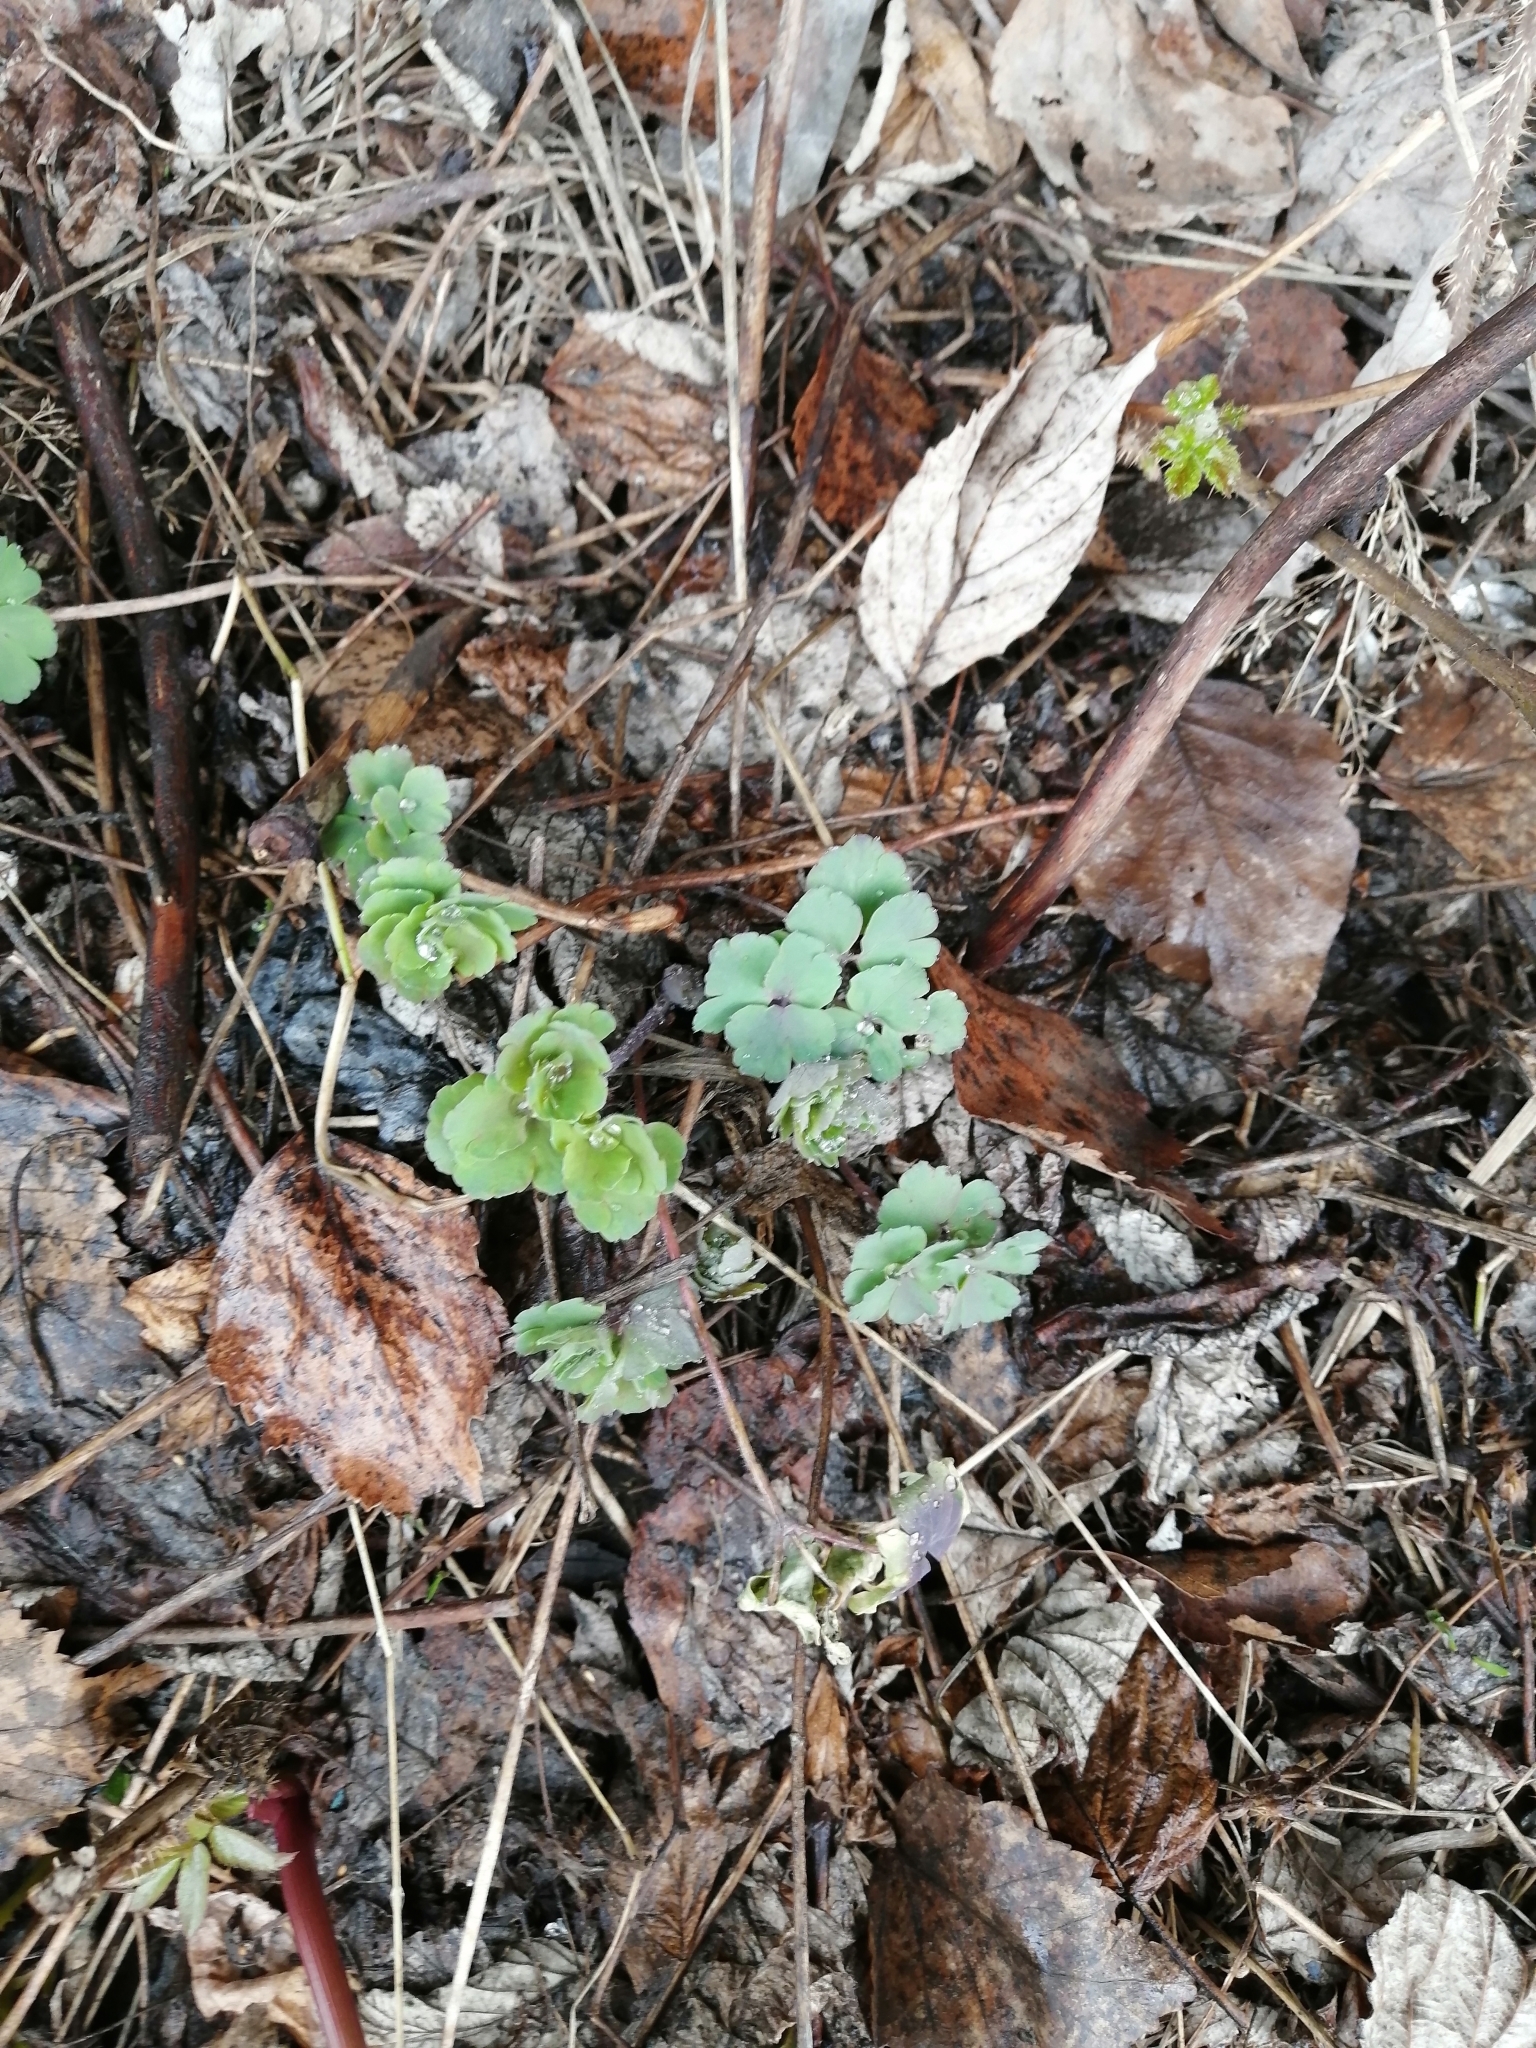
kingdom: Plantae
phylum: Tracheophyta
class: Magnoliopsida
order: Dipsacales
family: Viburnaceae
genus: Adoxa
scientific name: Adoxa moschatellina
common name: Moschatel
